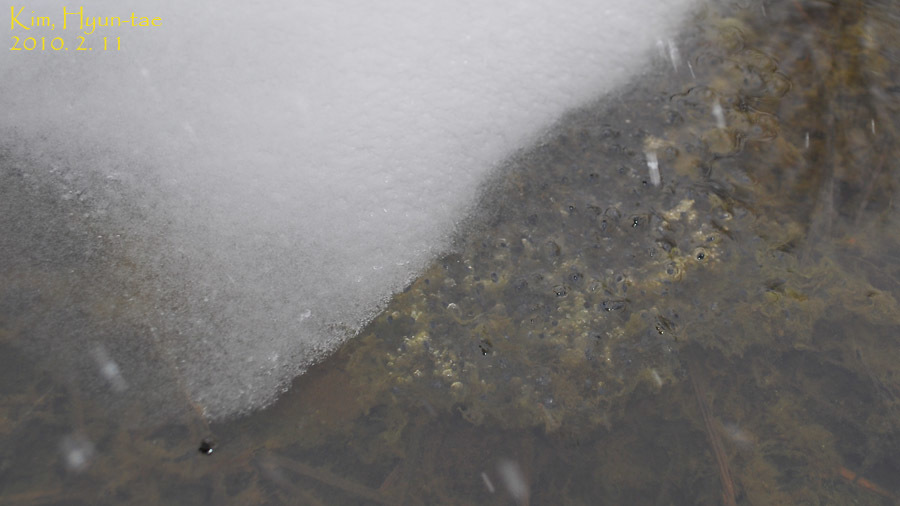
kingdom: Animalia
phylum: Chordata
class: Amphibia
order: Anura
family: Ranidae
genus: Rana
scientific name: Rana uenoi
